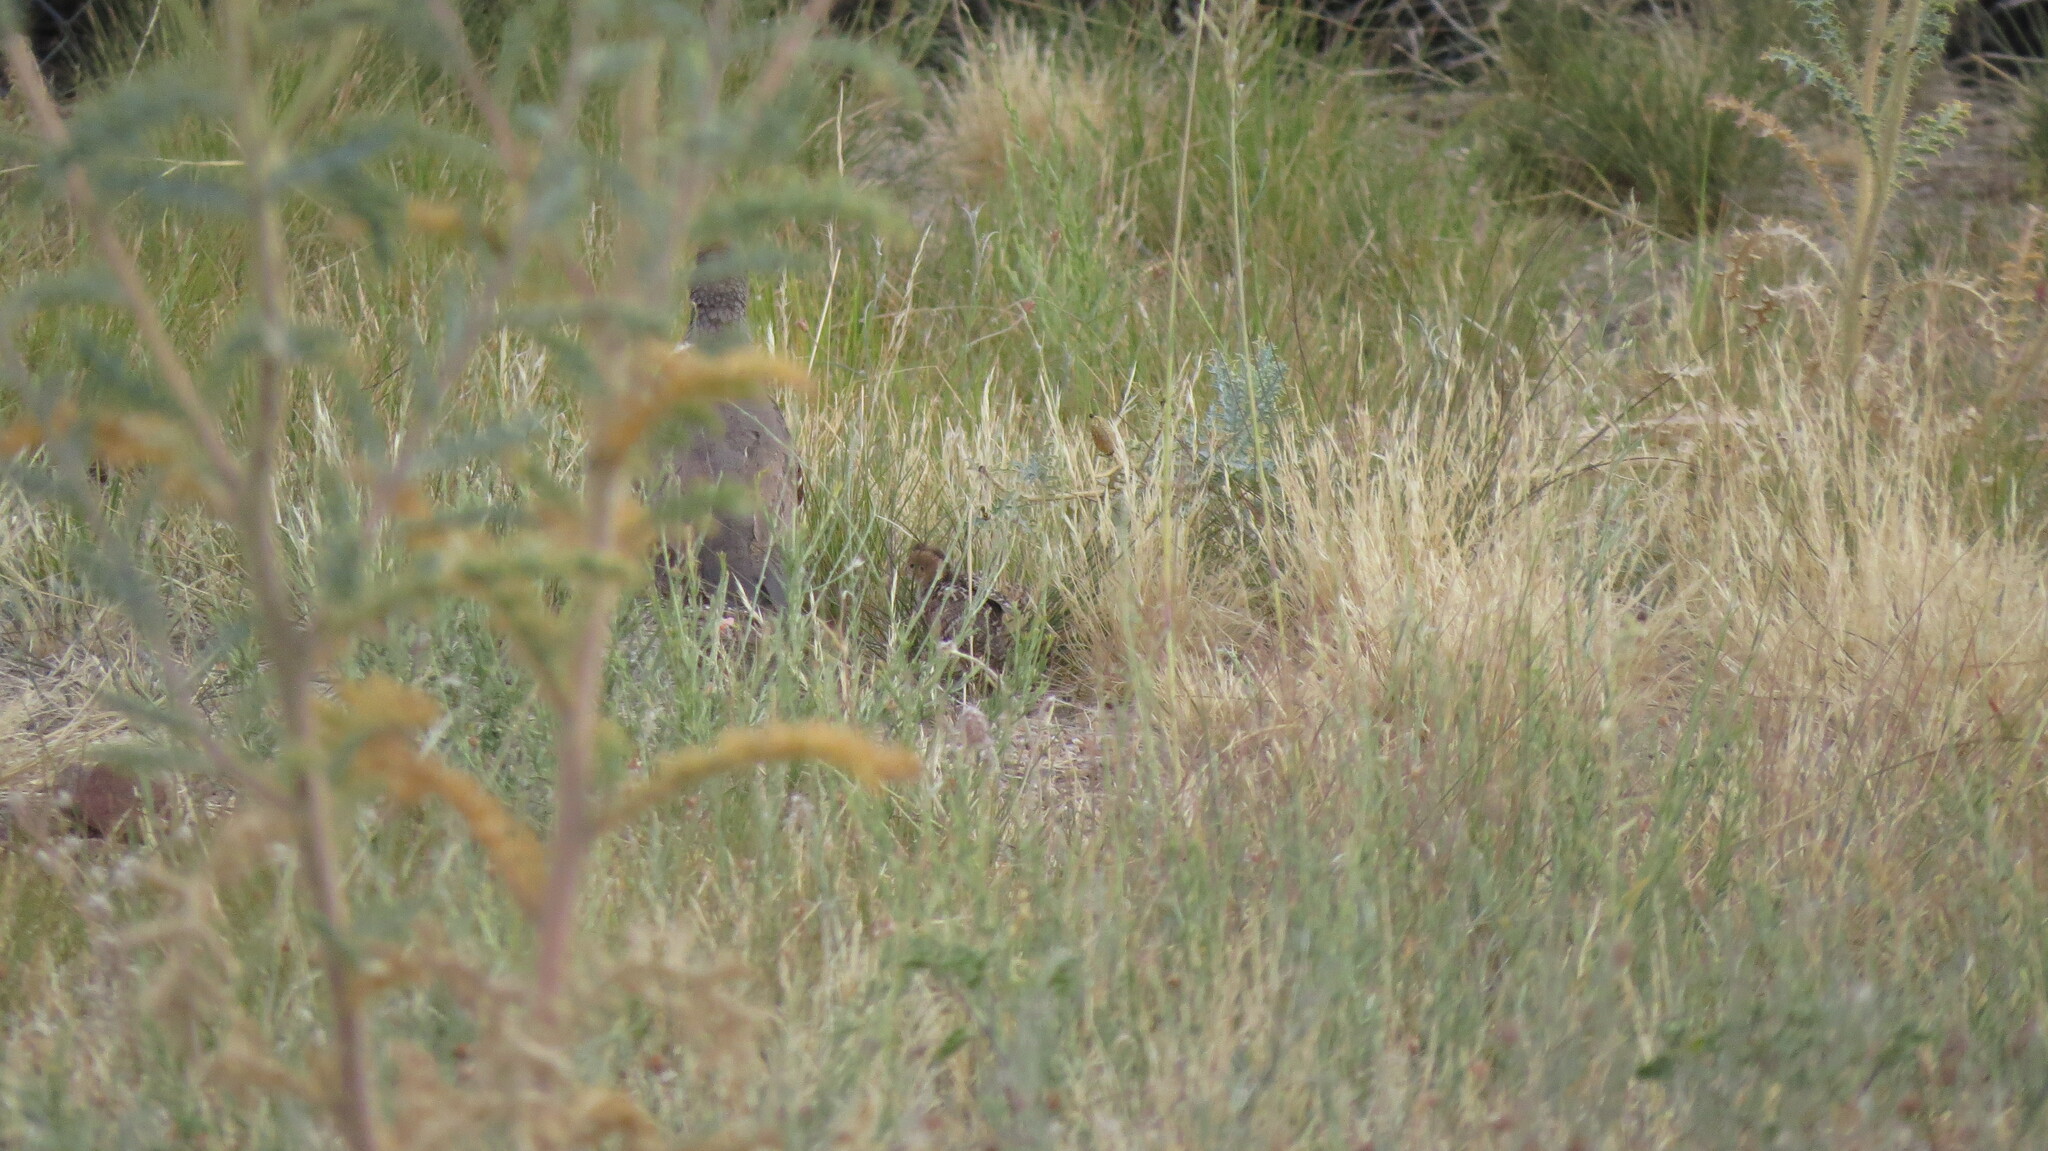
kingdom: Animalia
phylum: Chordata
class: Aves
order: Galliformes
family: Odontophoridae
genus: Callipepla
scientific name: Callipepla gambelii
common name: Gambel's quail
